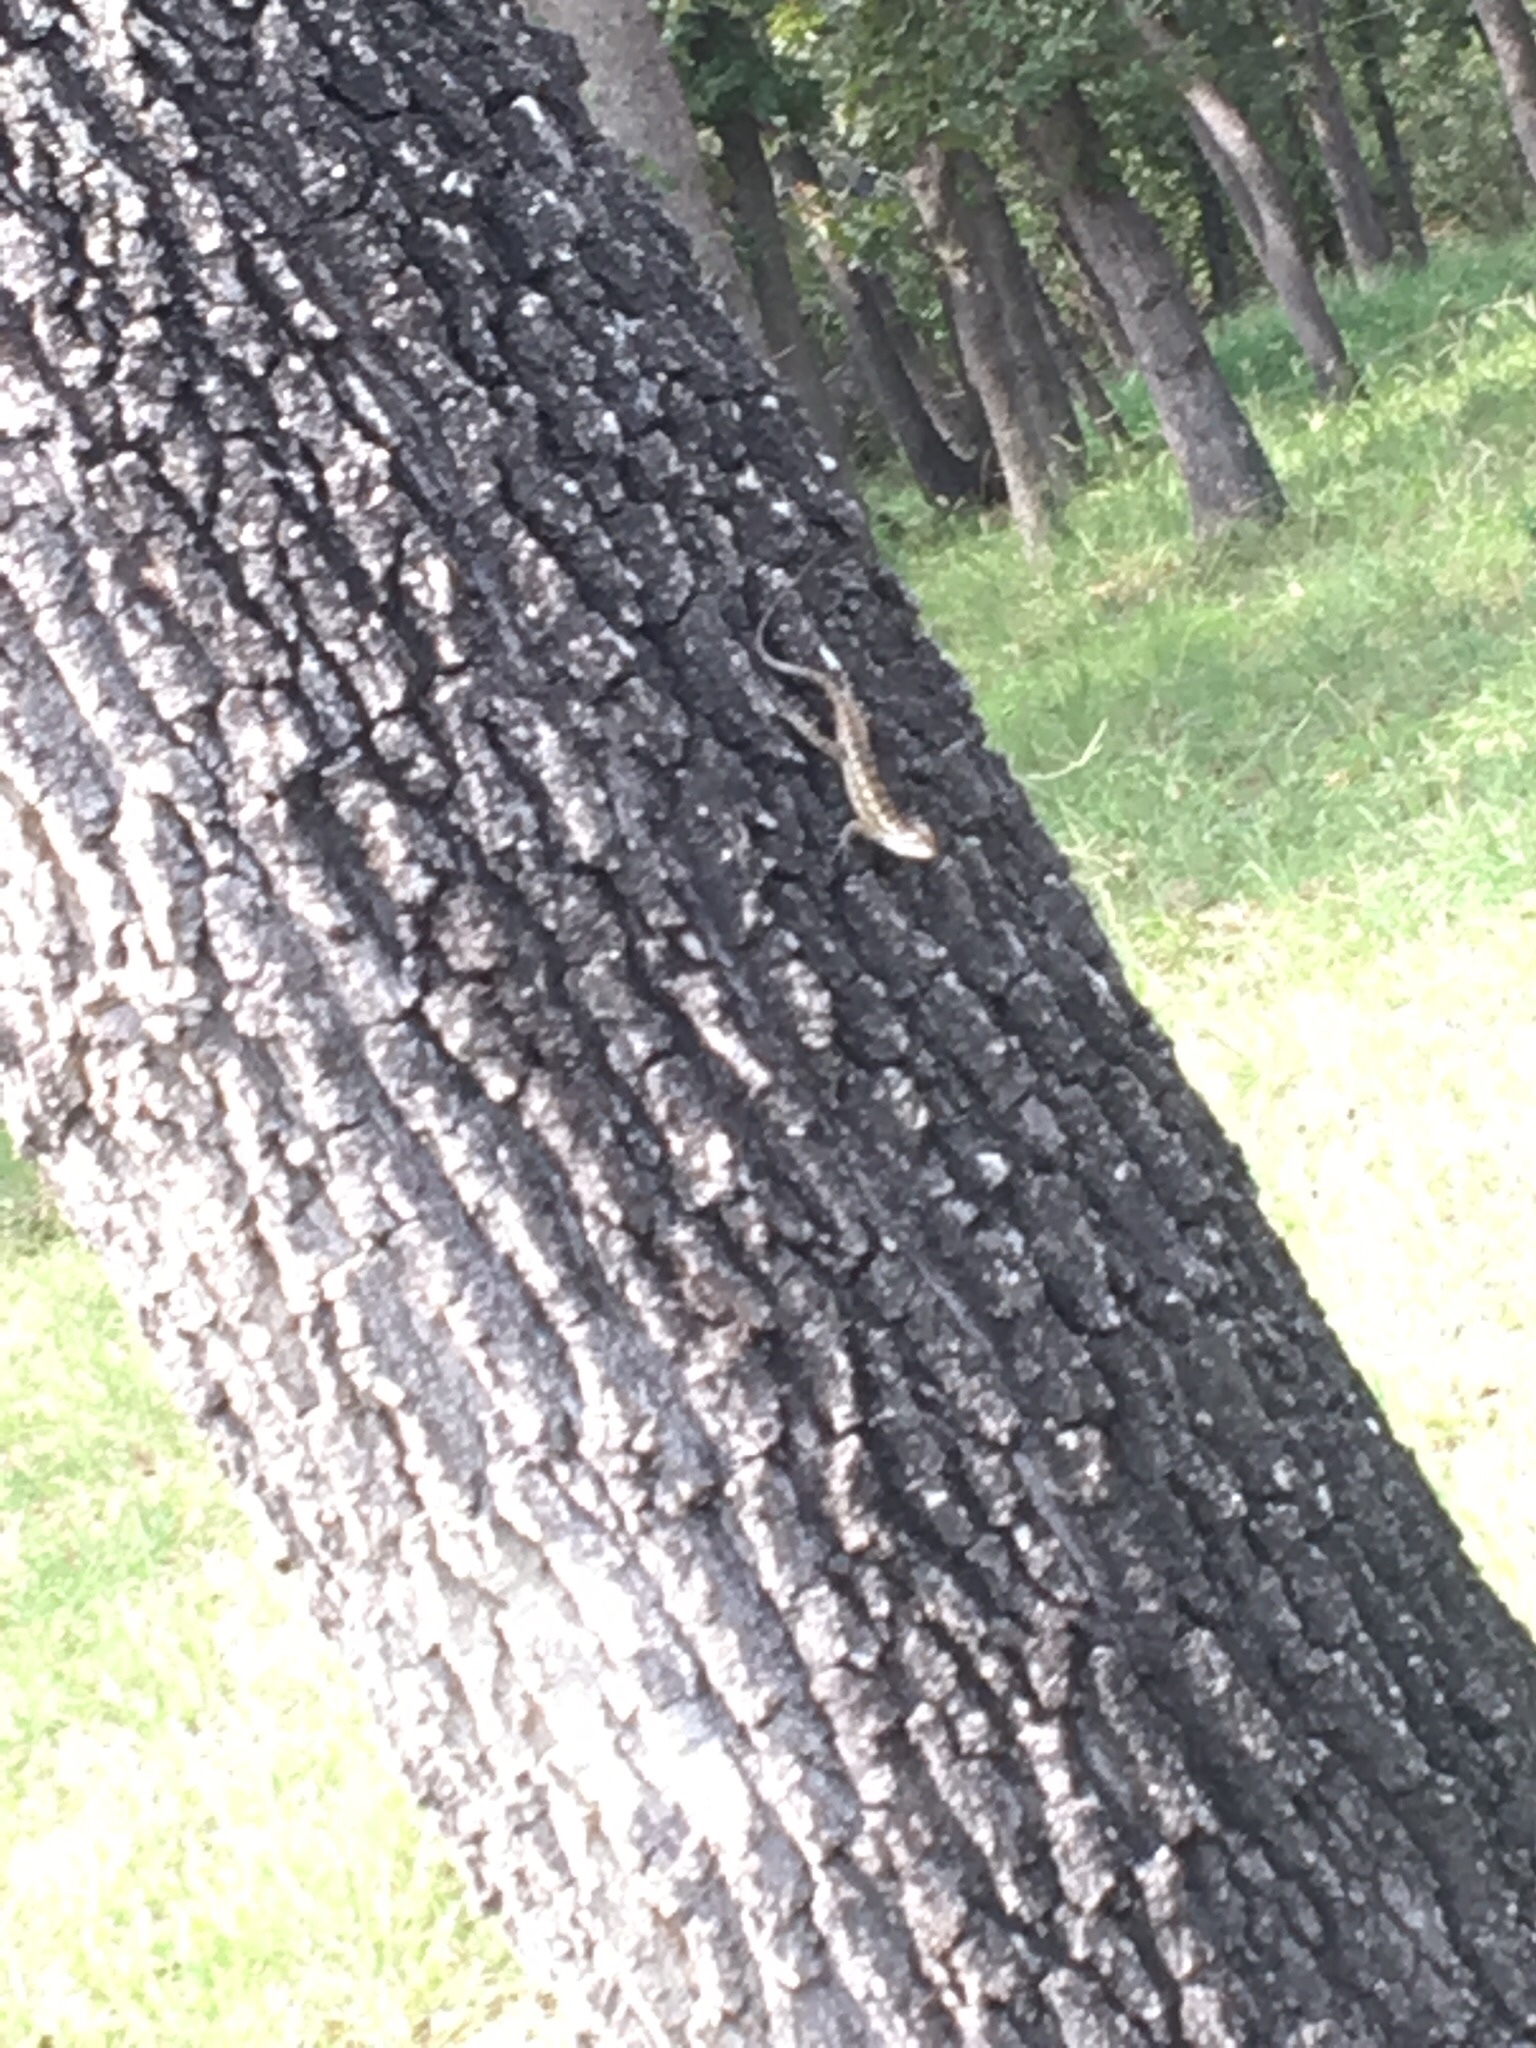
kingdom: Animalia
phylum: Chordata
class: Squamata
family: Phrynosomatidae
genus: Sceloporus
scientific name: Sceloporus olivaceus
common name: Texas spiny lizard
